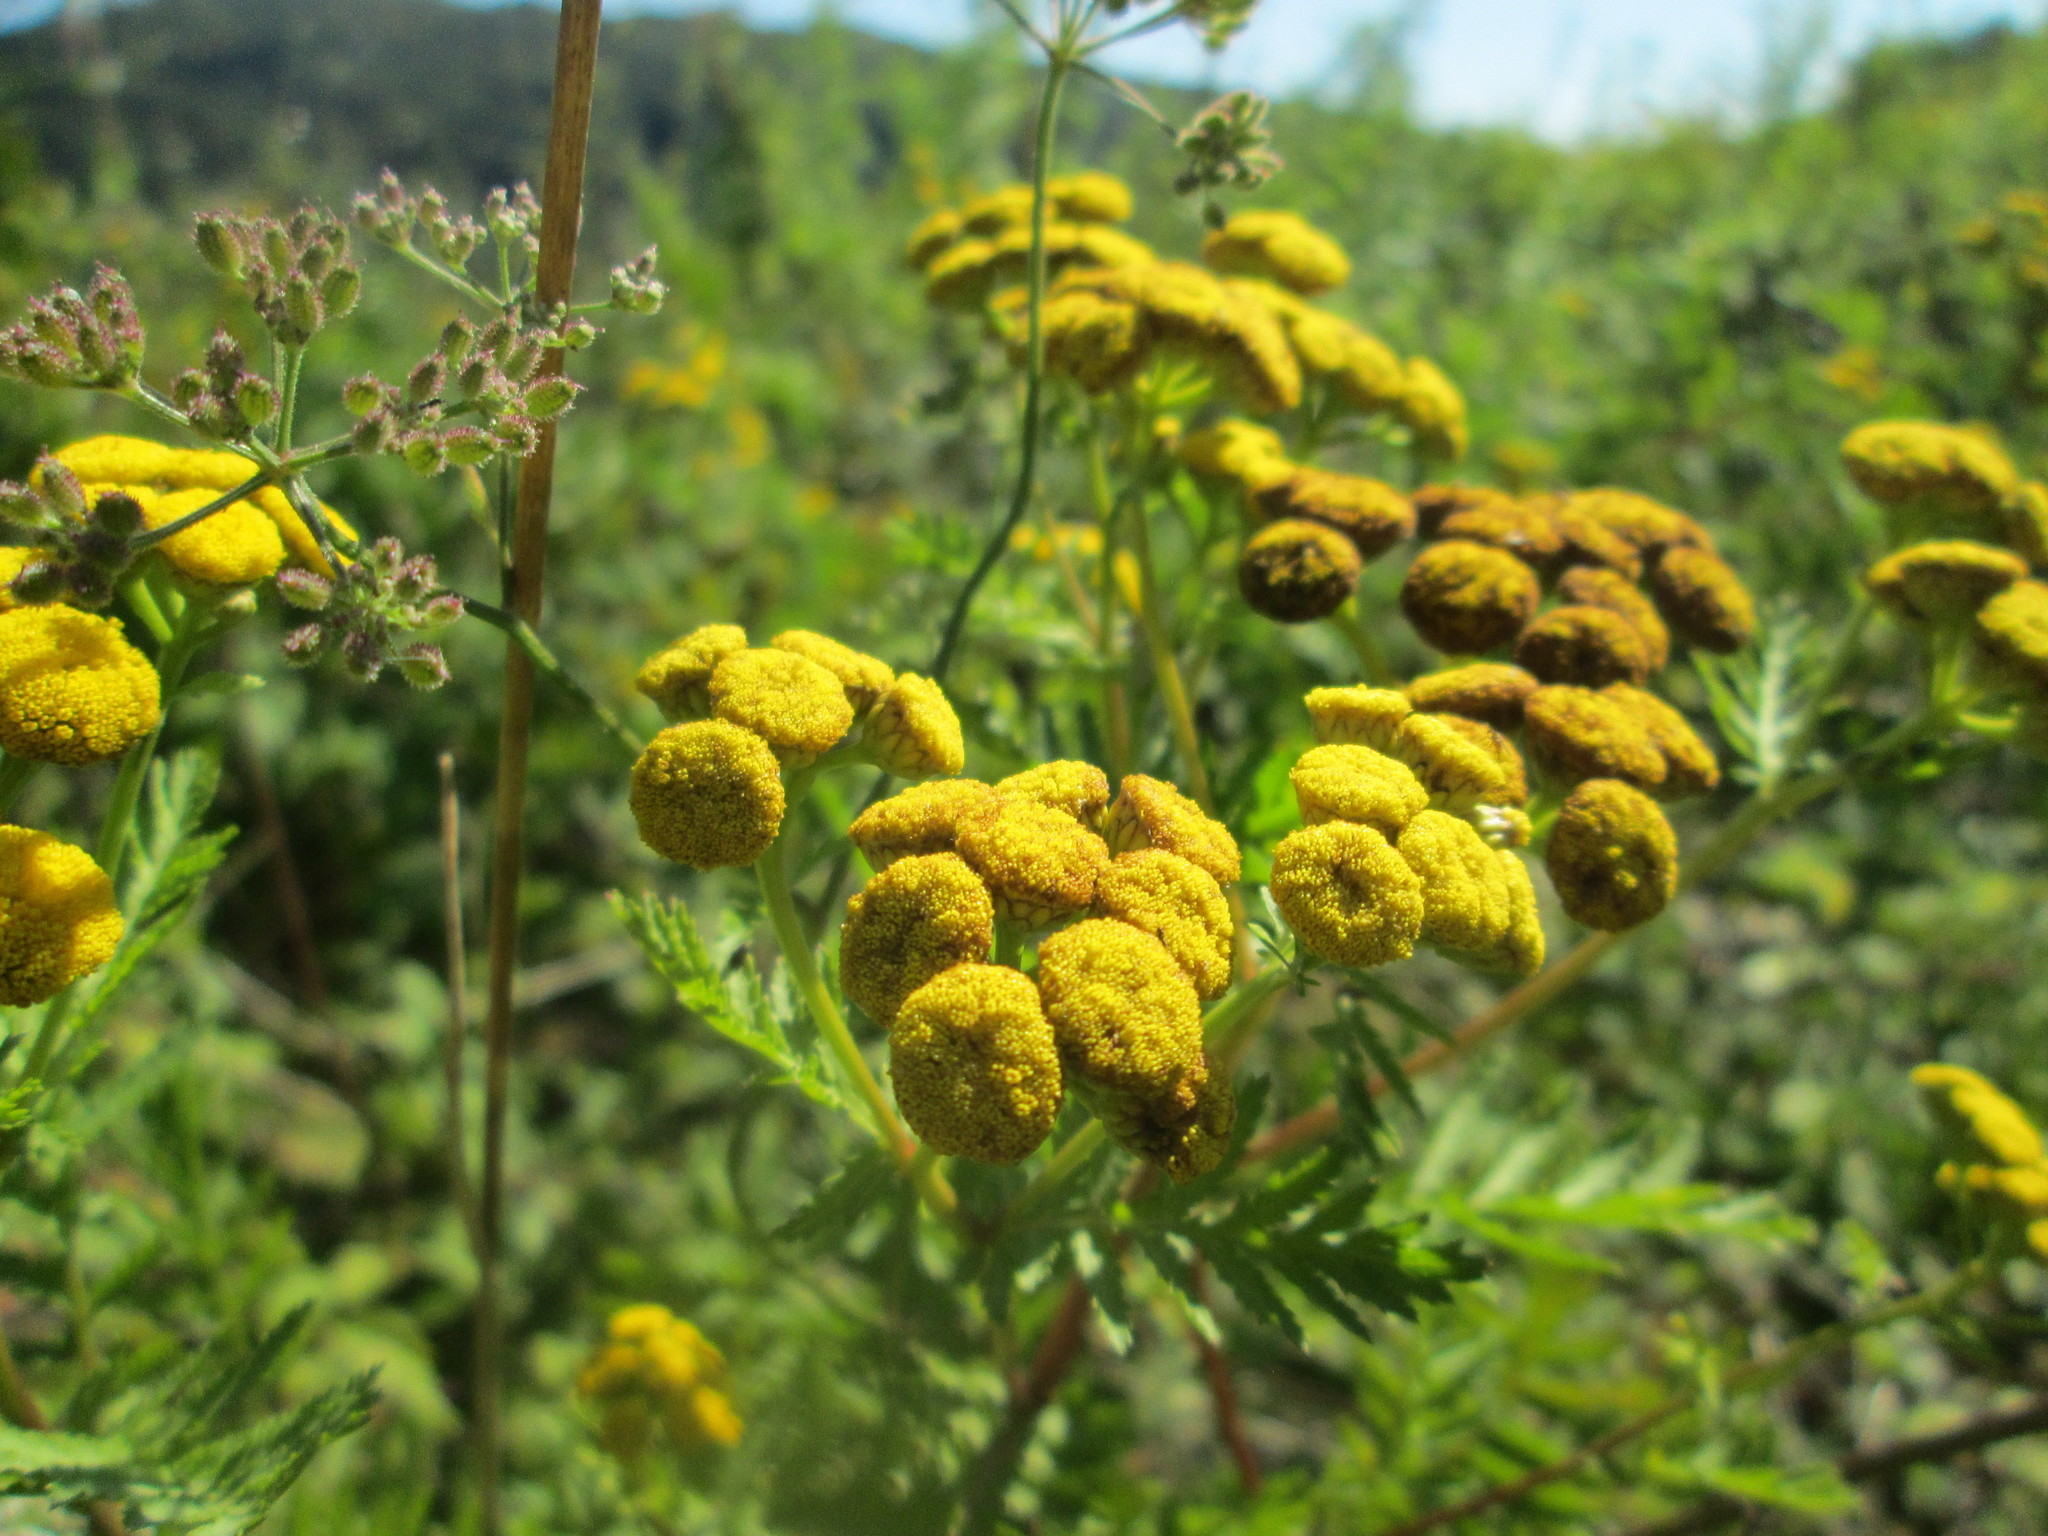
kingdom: Plantae
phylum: Tracheophyta
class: Magnoliopsida
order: Asterales
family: Asteraceae
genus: Tanacetum
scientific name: Tanacetum vulgare
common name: Common tansy
